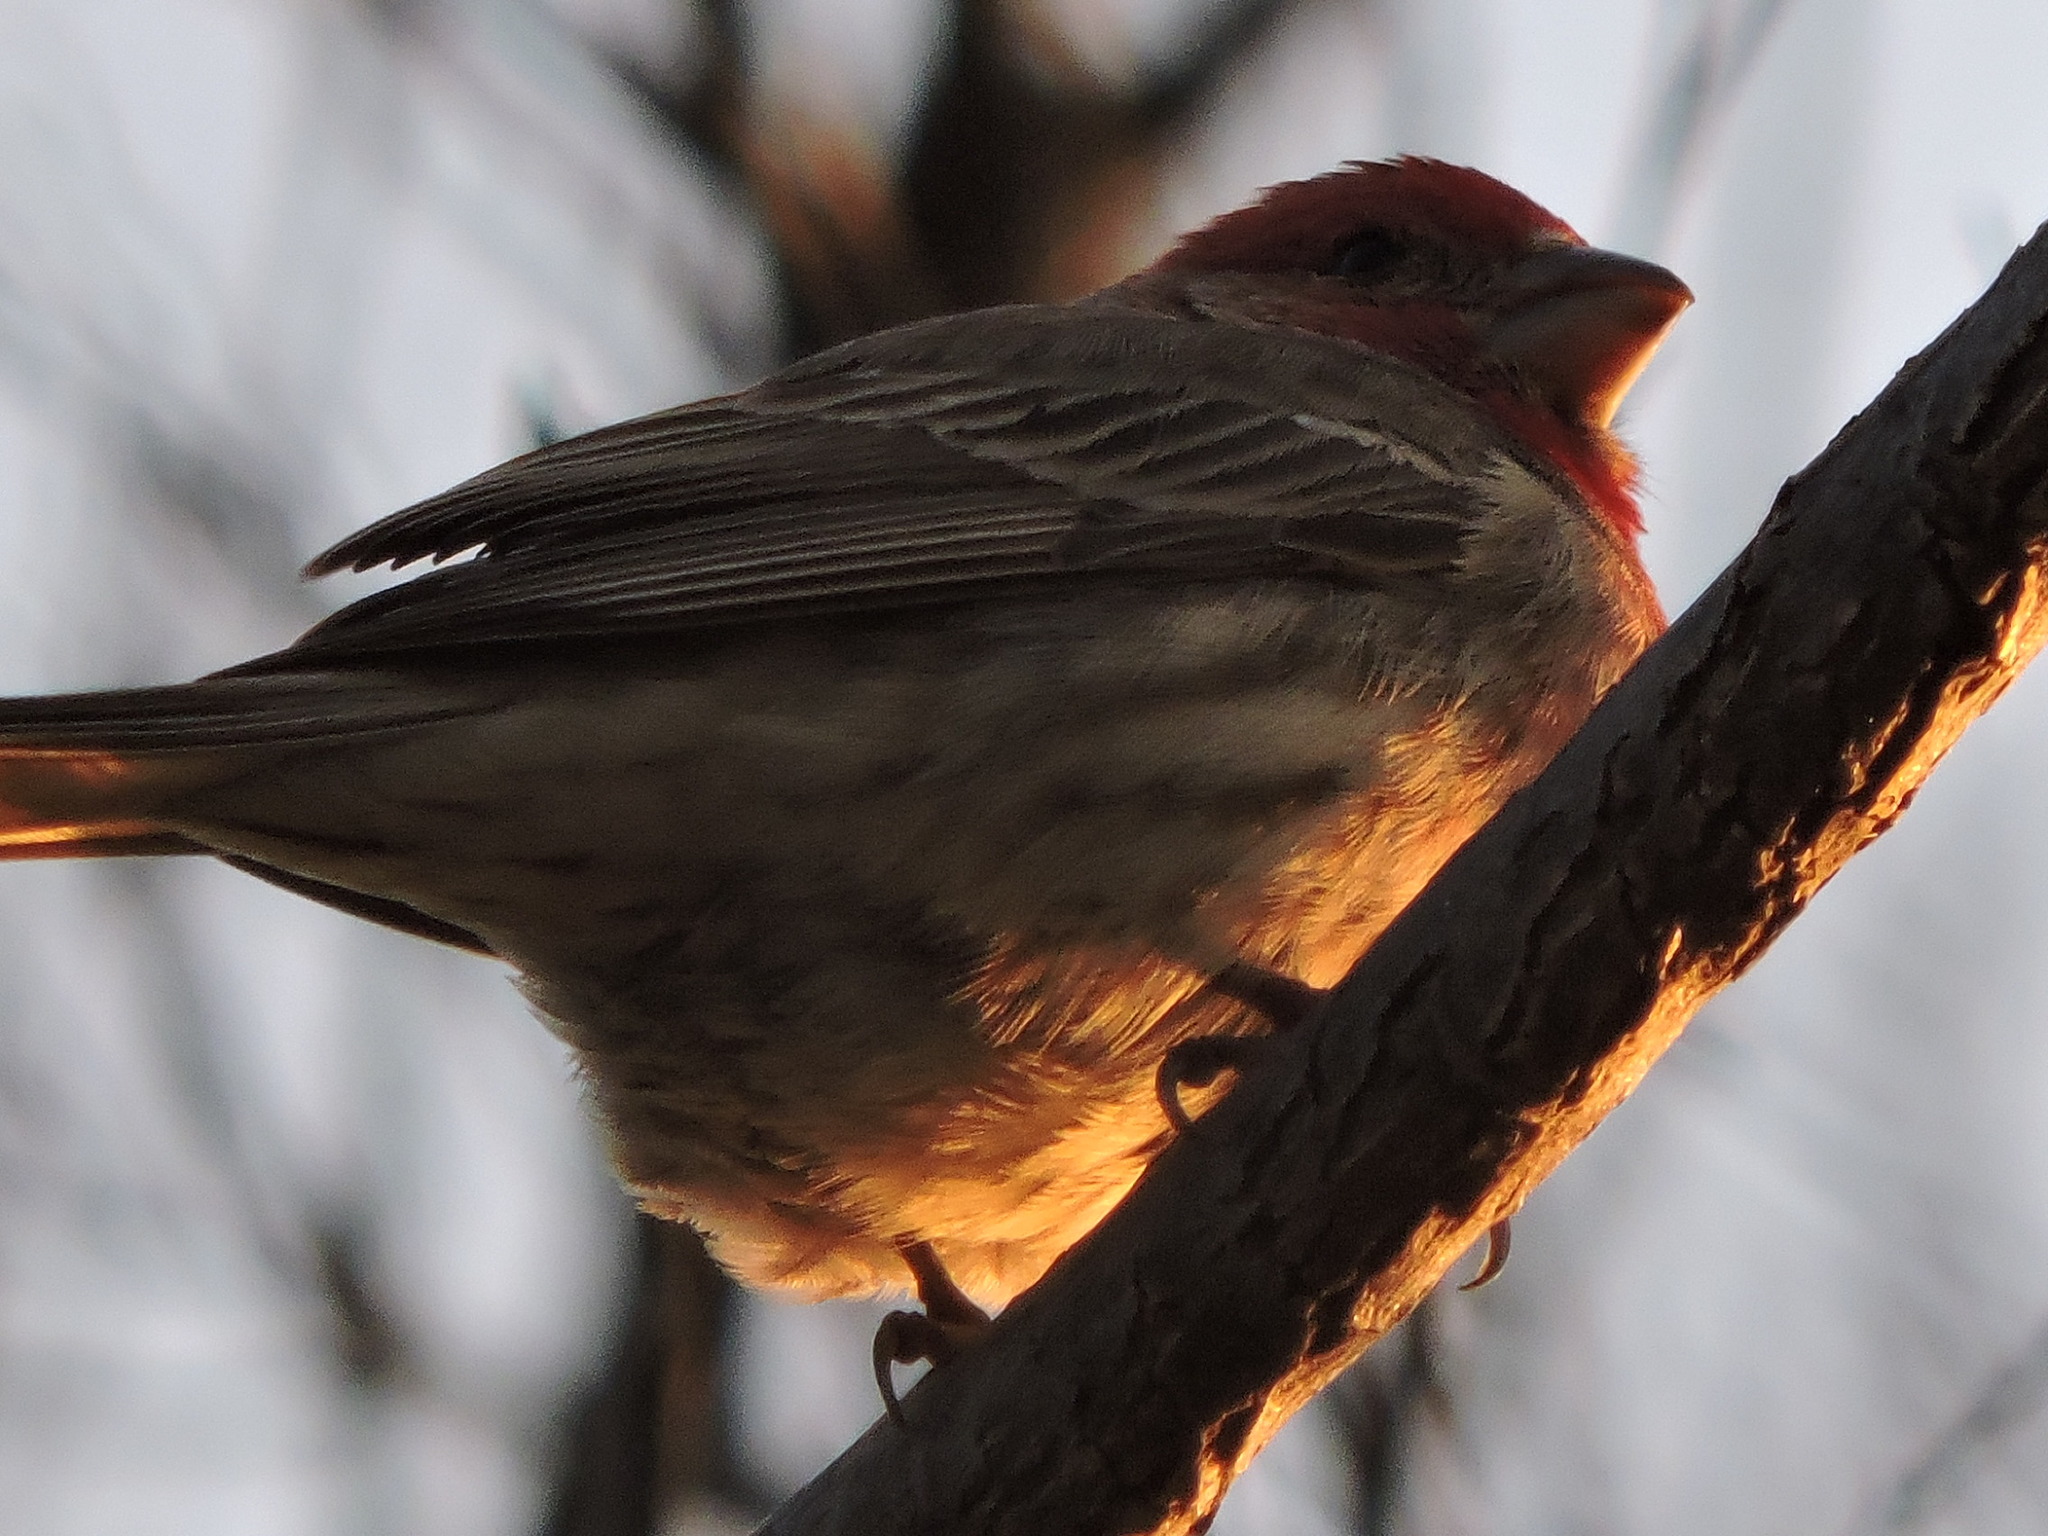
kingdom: Animalia
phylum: Chordata
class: Aves
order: Passeriformes
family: Fringillidae
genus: Haemorhous
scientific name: Haemorhous mexicanus
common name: House finch
